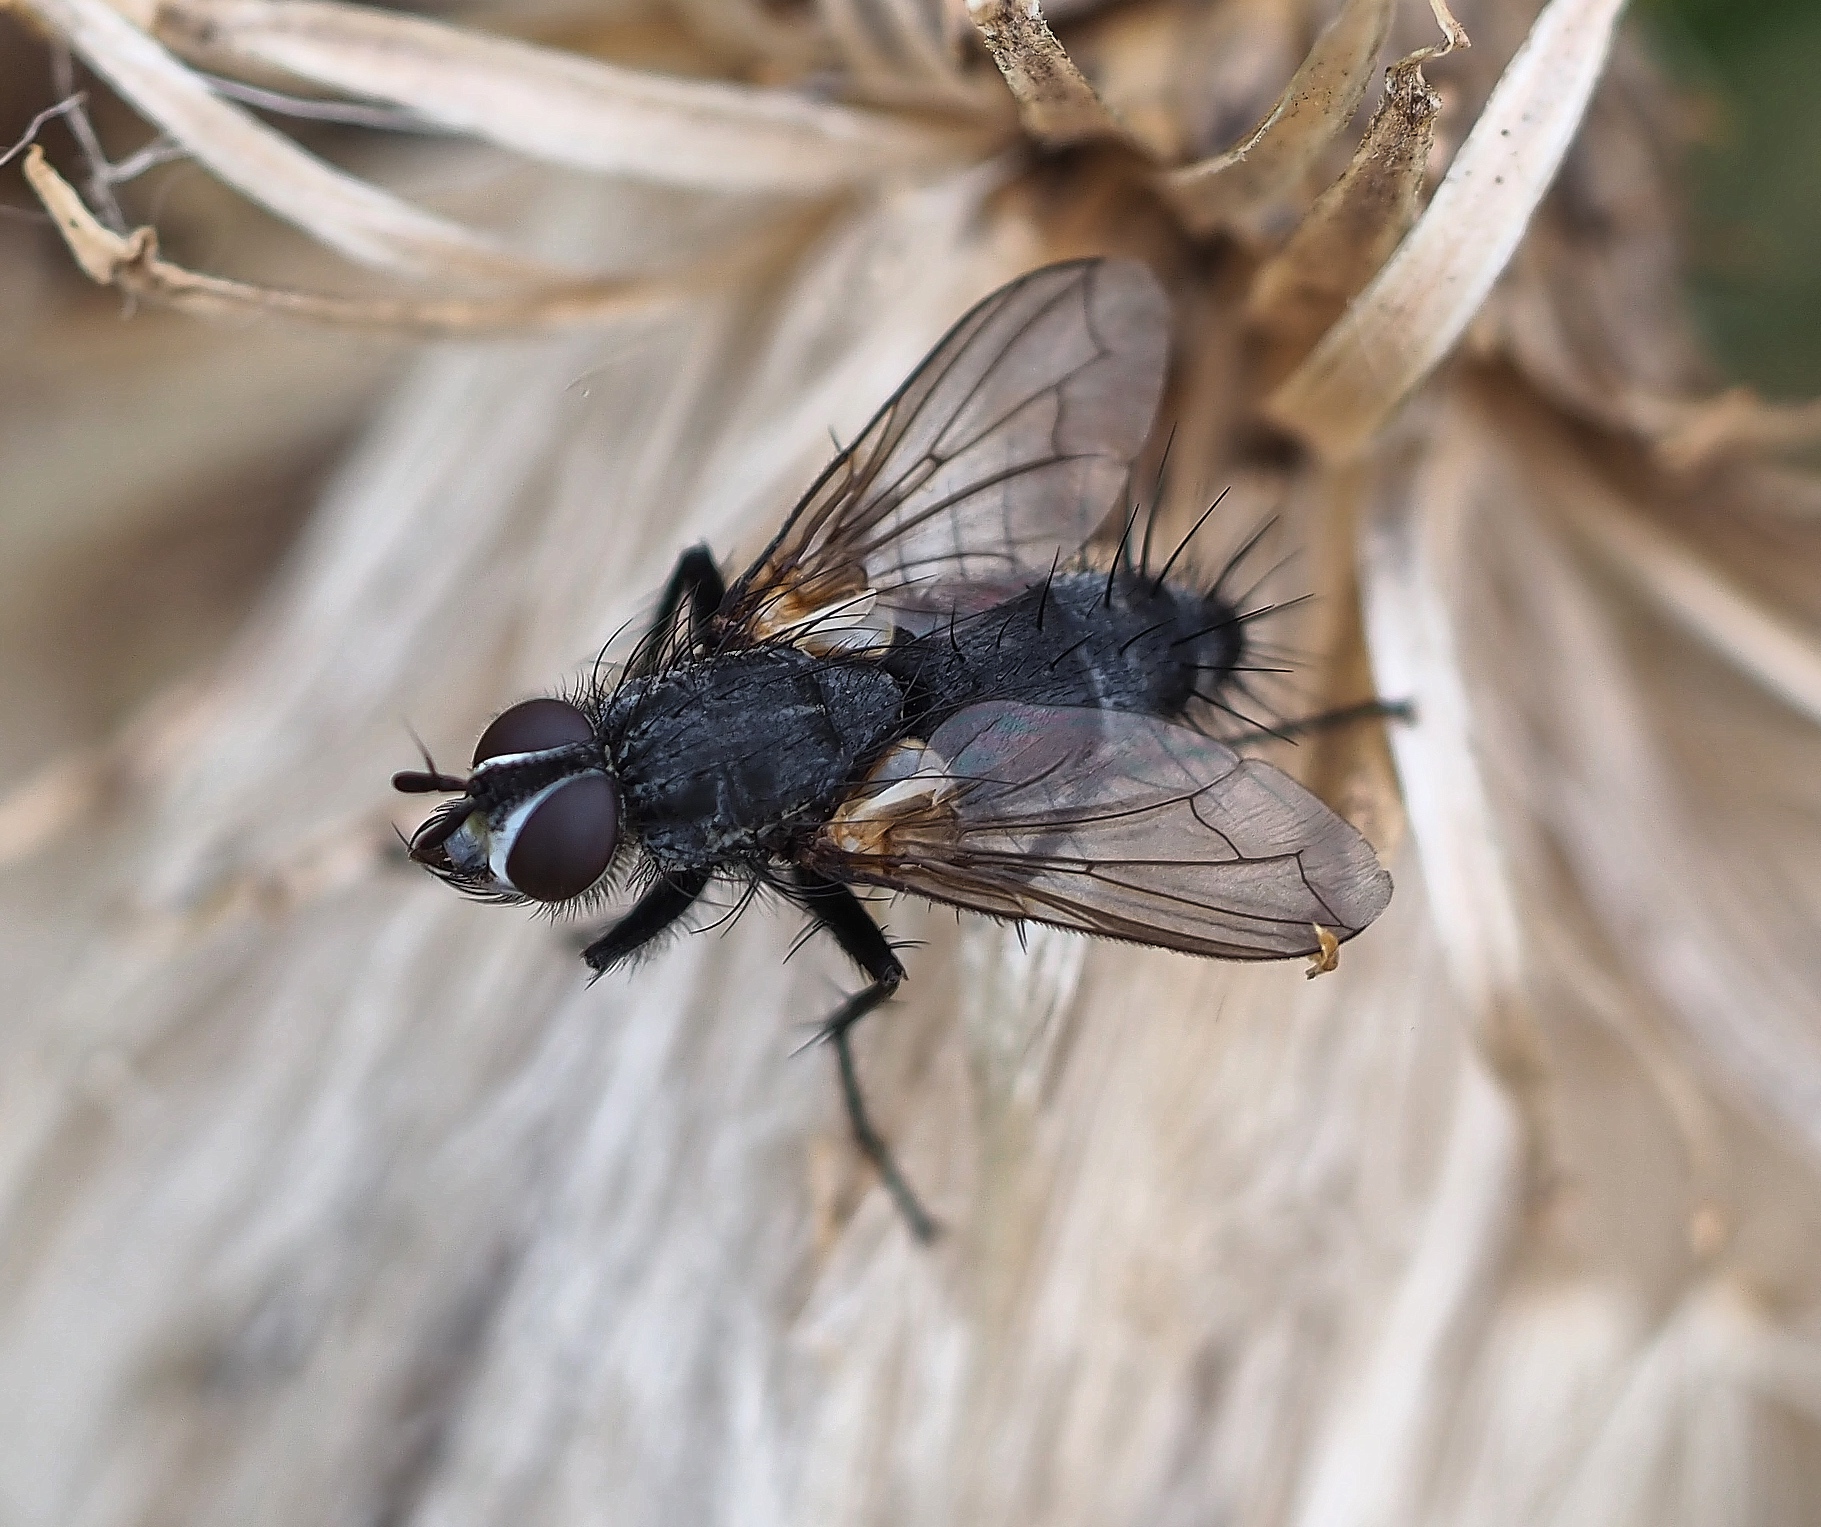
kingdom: Animalia
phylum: Arthropoda
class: Insecta
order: Diptera
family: Tachinidae
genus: Eriothrix
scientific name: Eriothrix rufomaculatus
